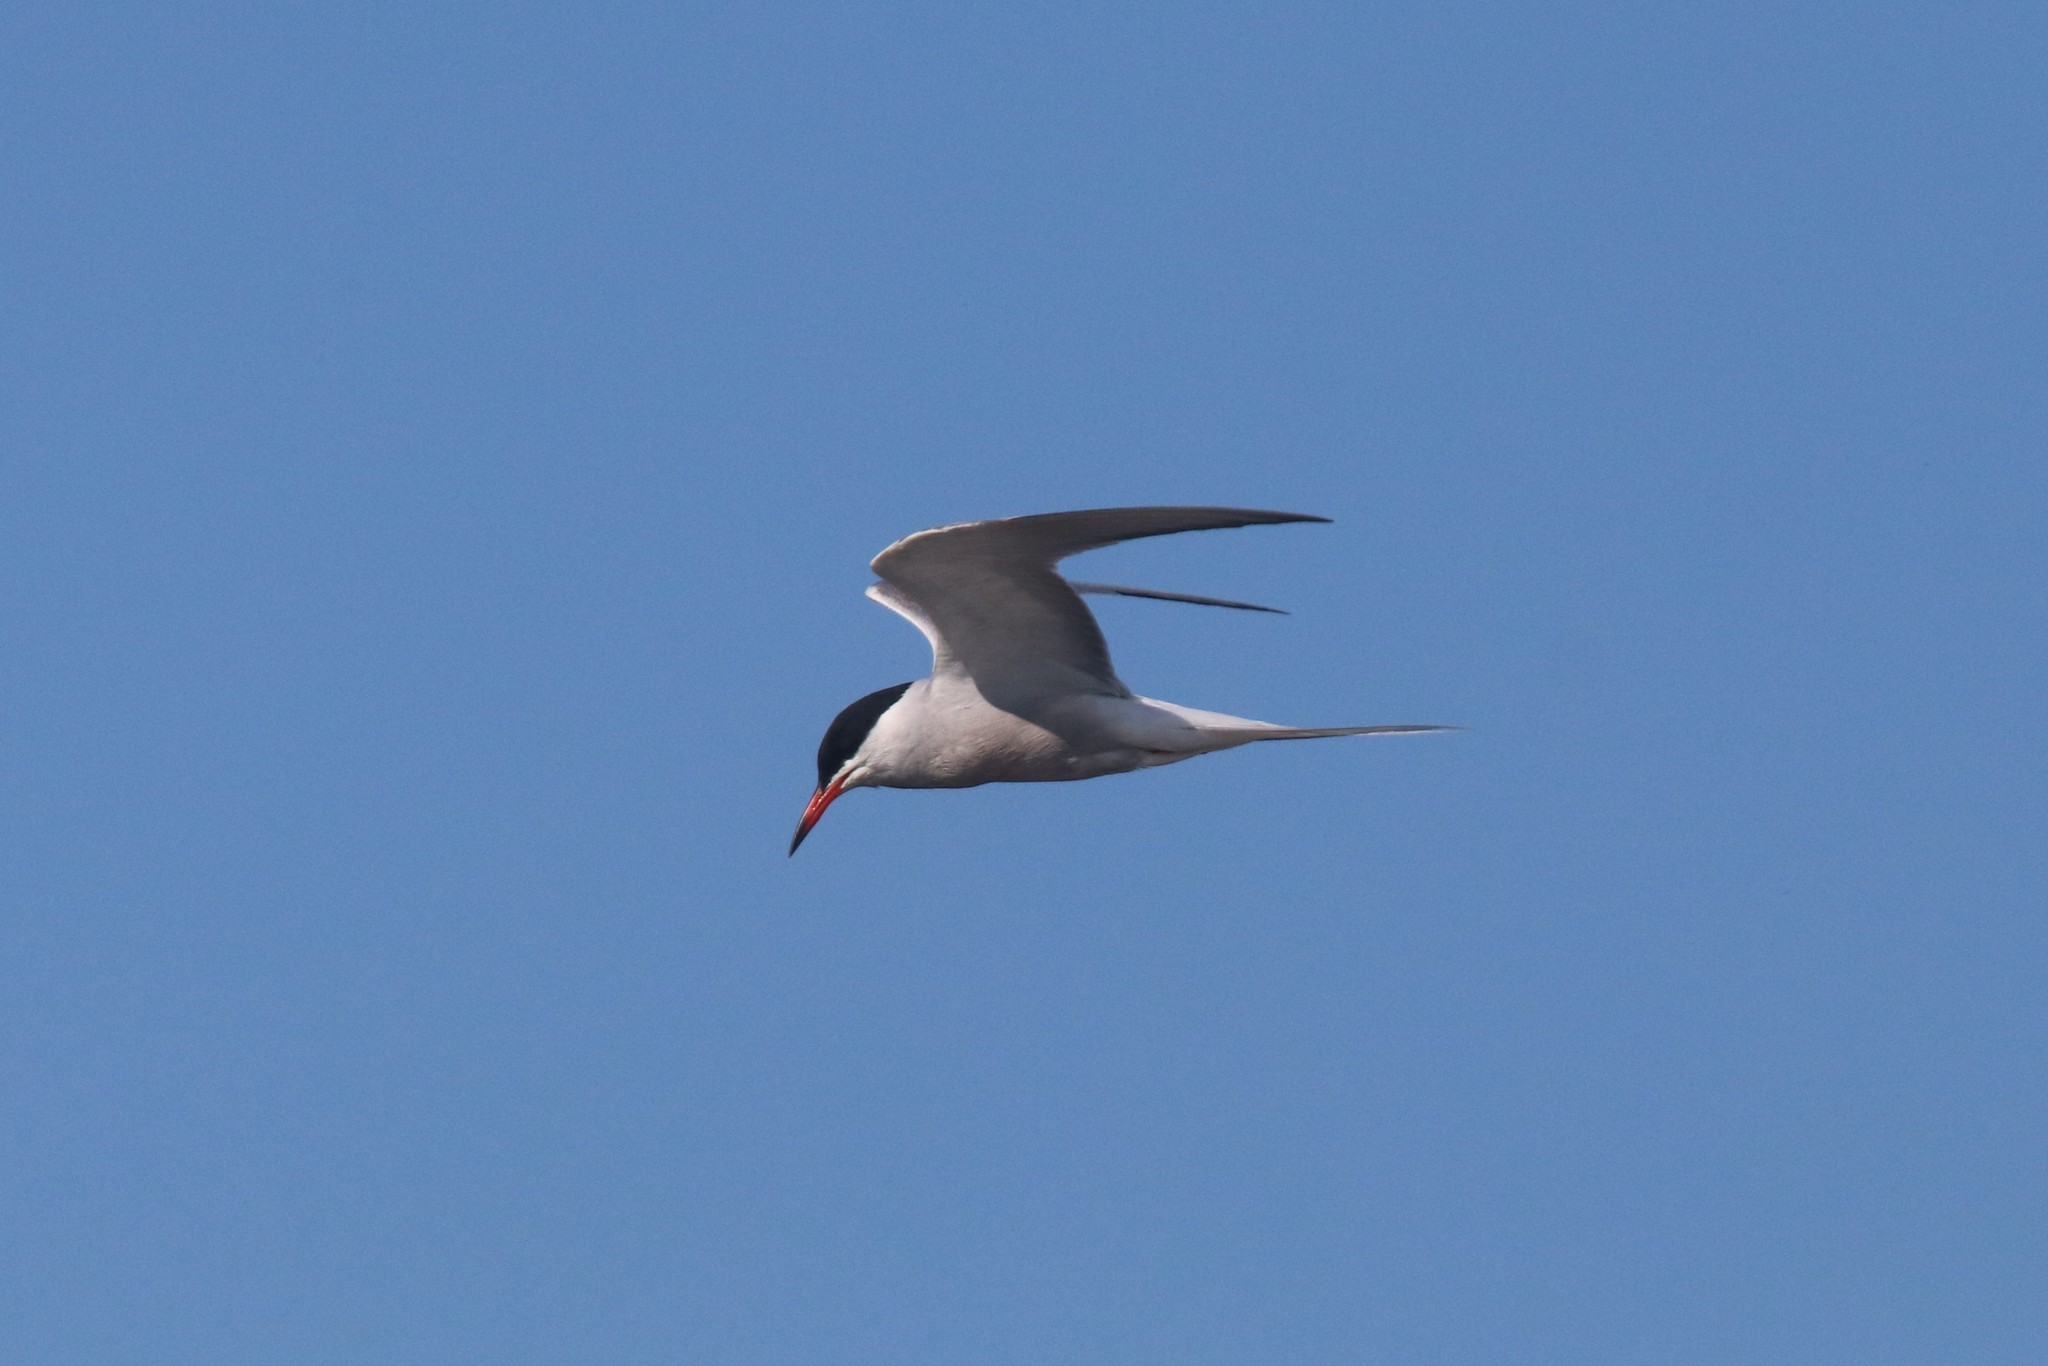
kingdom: Animalia
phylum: Chordata
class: Aves
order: Charadriiformes
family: Laridae
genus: Sterna
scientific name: Sterna hirundo
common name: Common tern
